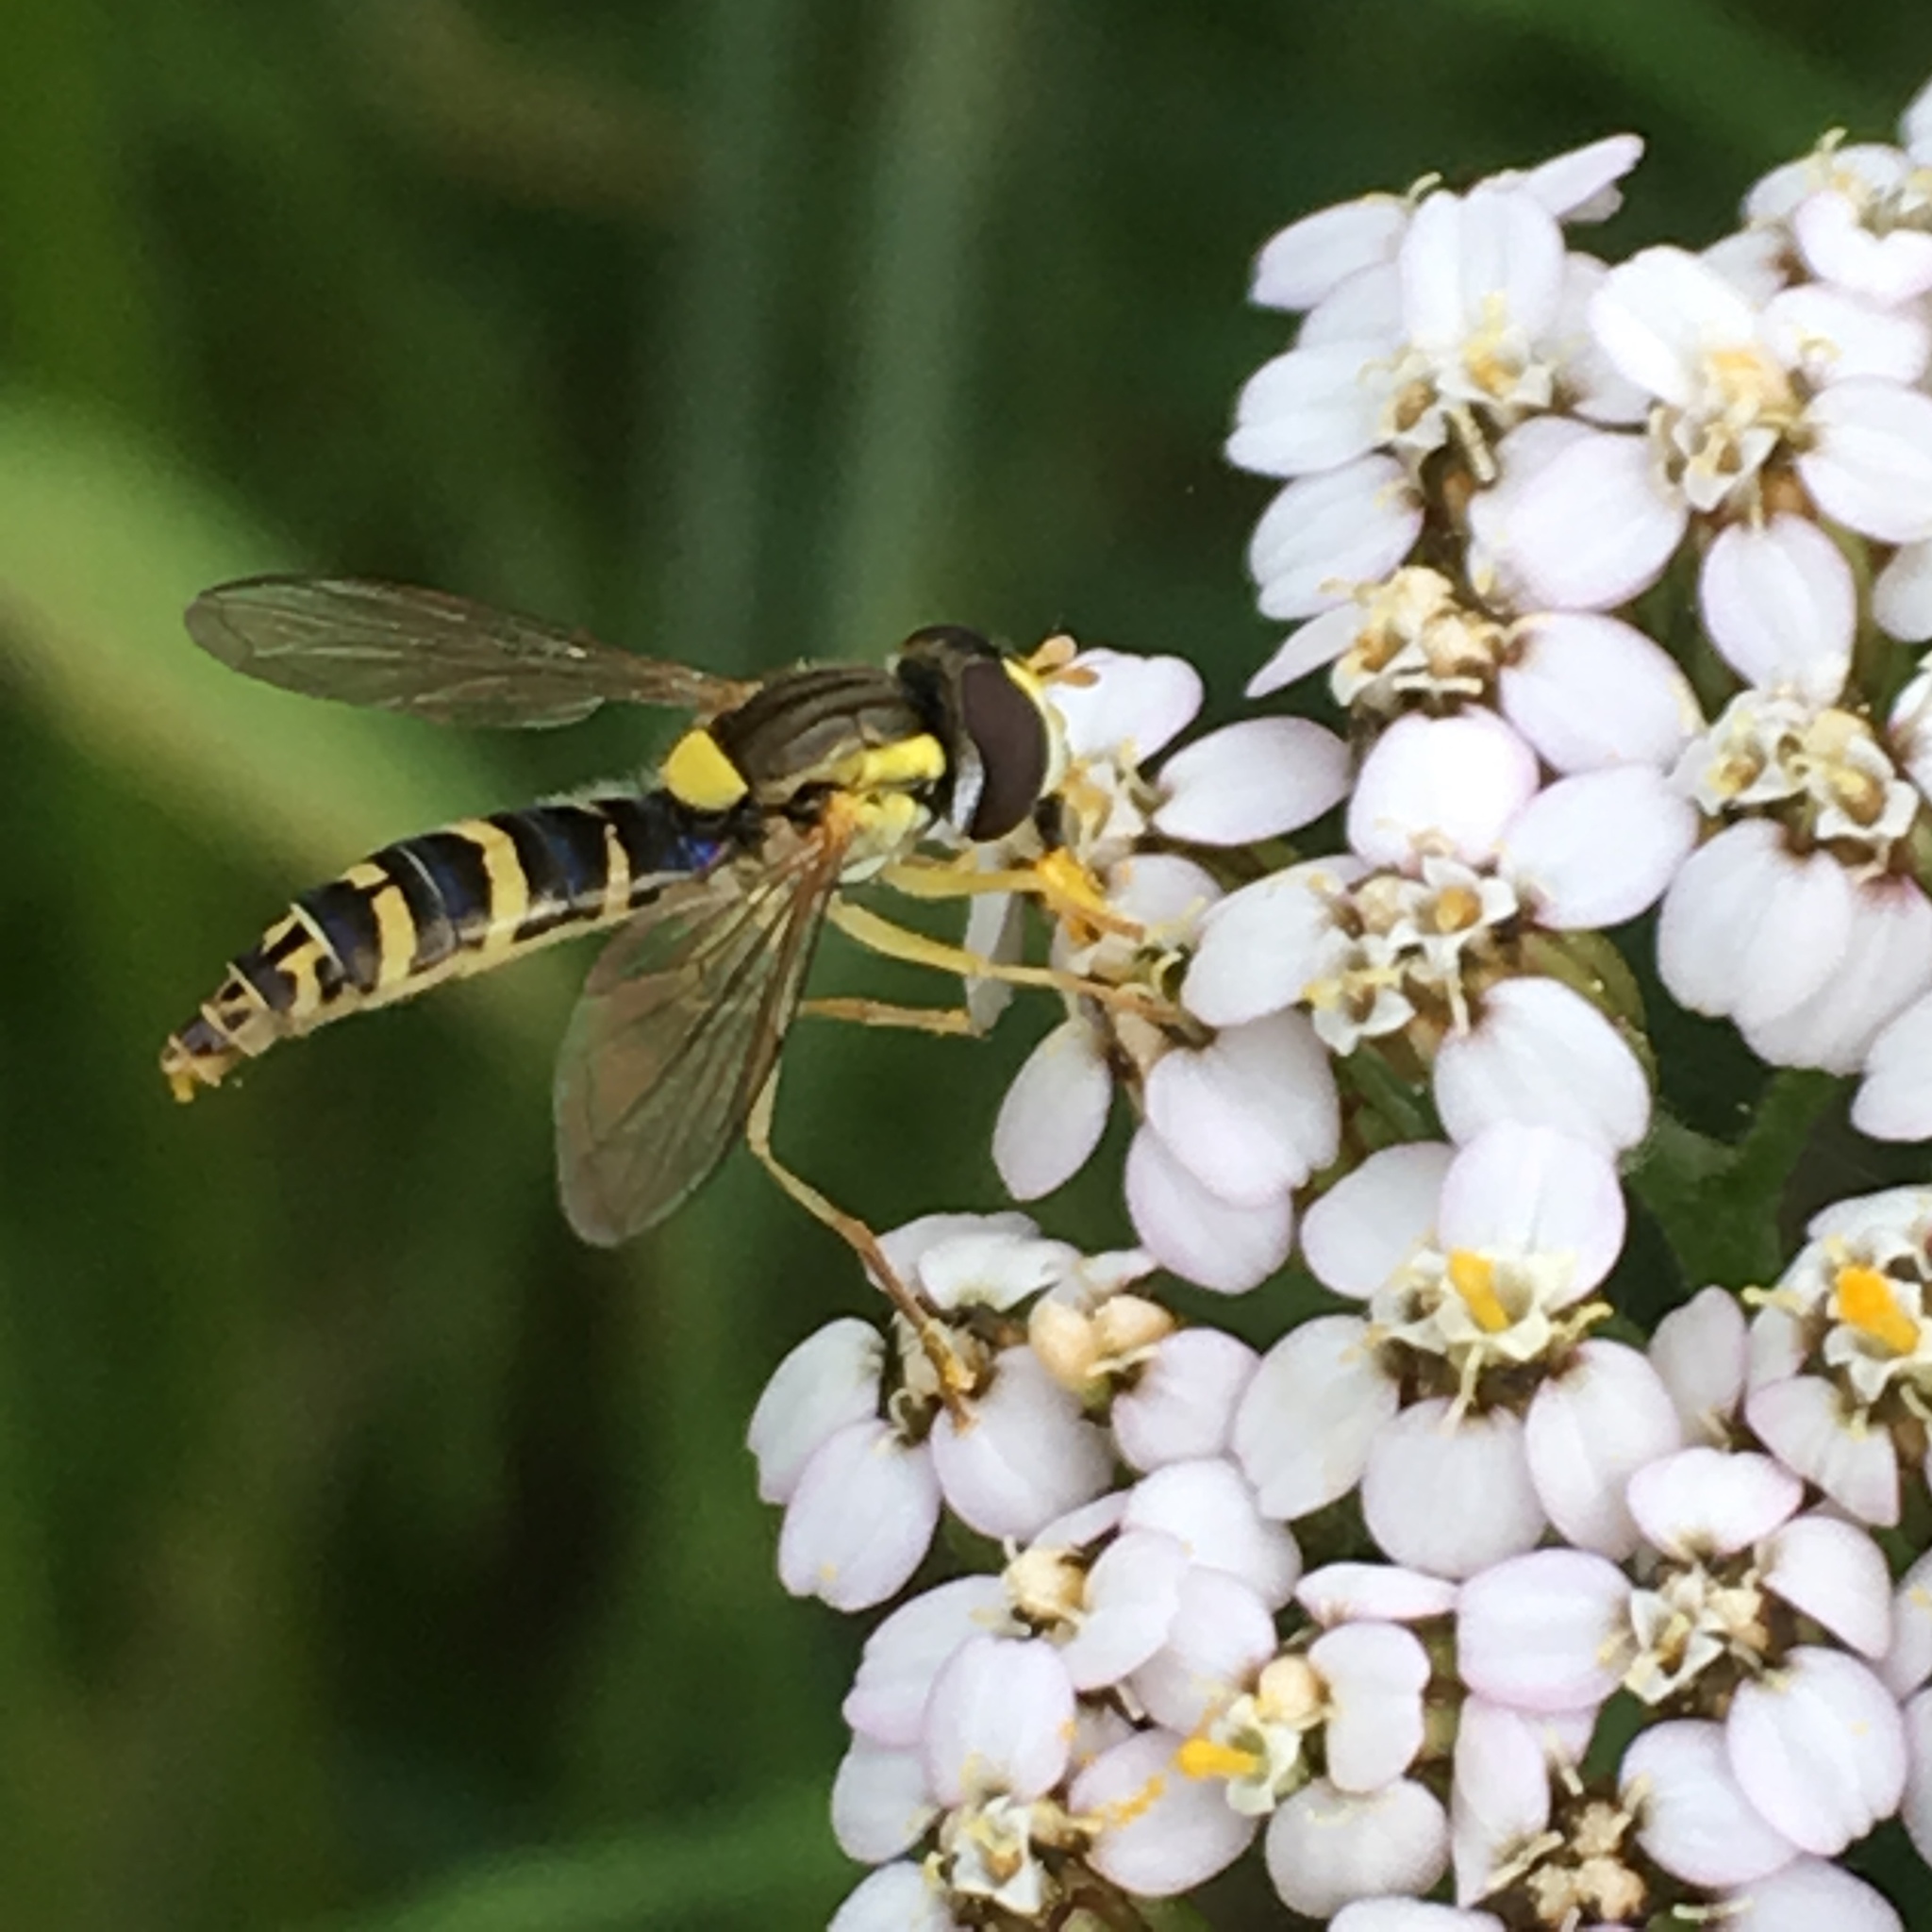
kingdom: Animalia
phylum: Arthropoda
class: Insecta
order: Diptera
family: Syrphidae
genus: Sphaerophoria
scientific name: Sphaerophoria
